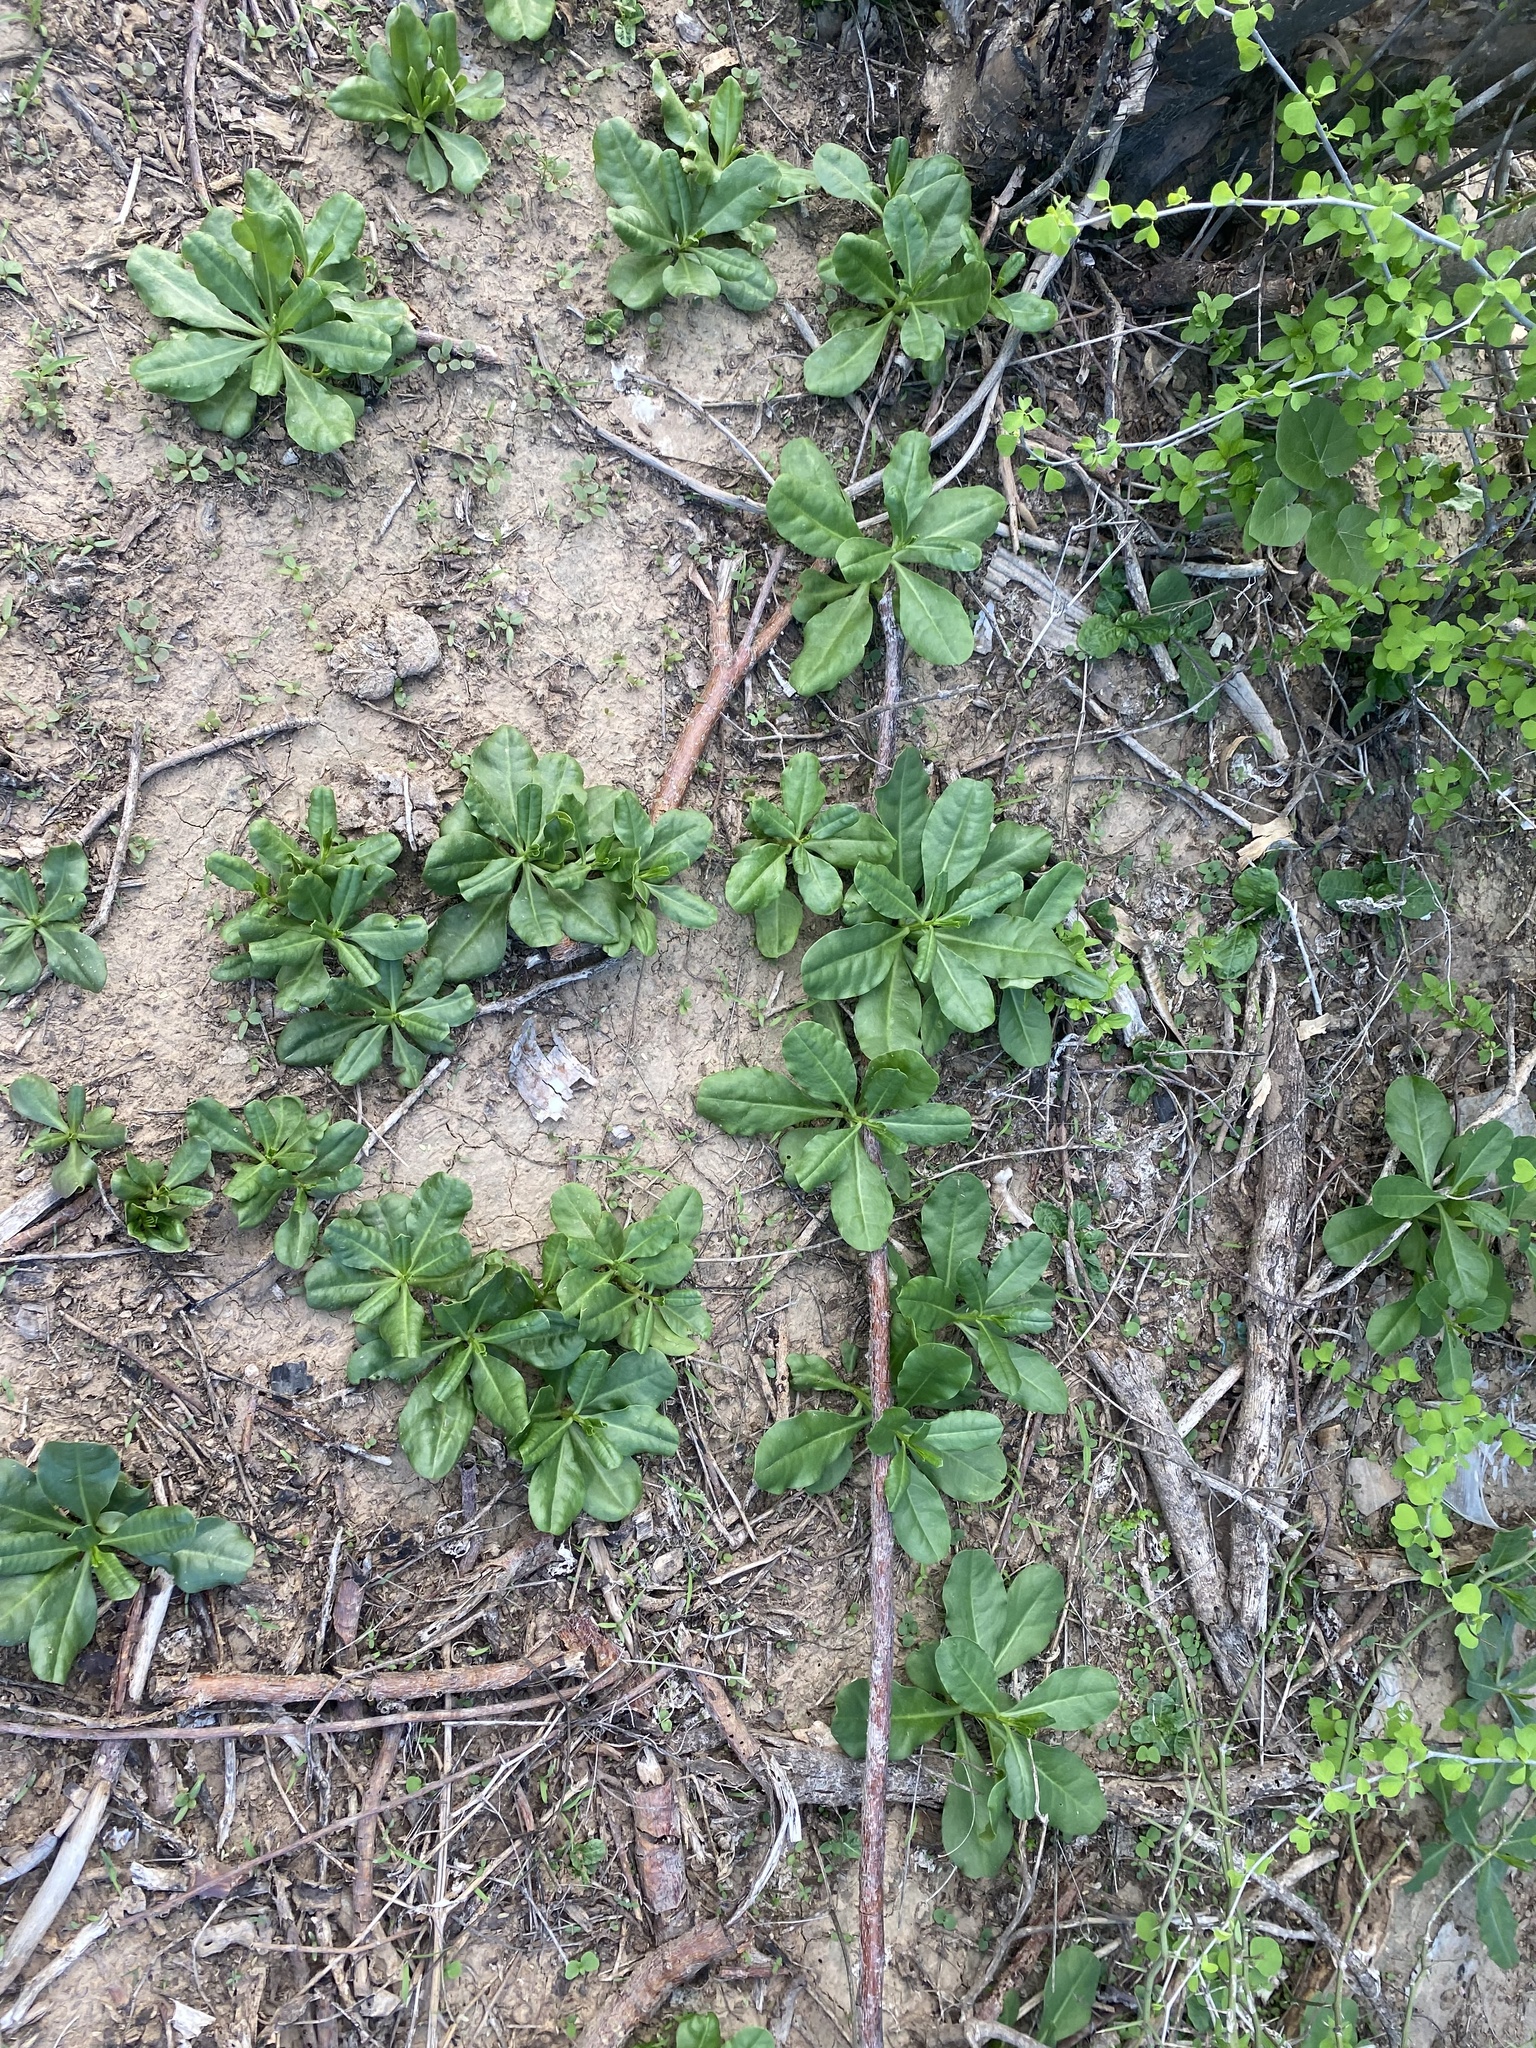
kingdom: Plantae
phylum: Tracheophyta
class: Magnoliopsida
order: Caryophyllales
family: Talinaceae
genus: Talinum
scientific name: Talinum sonorae
